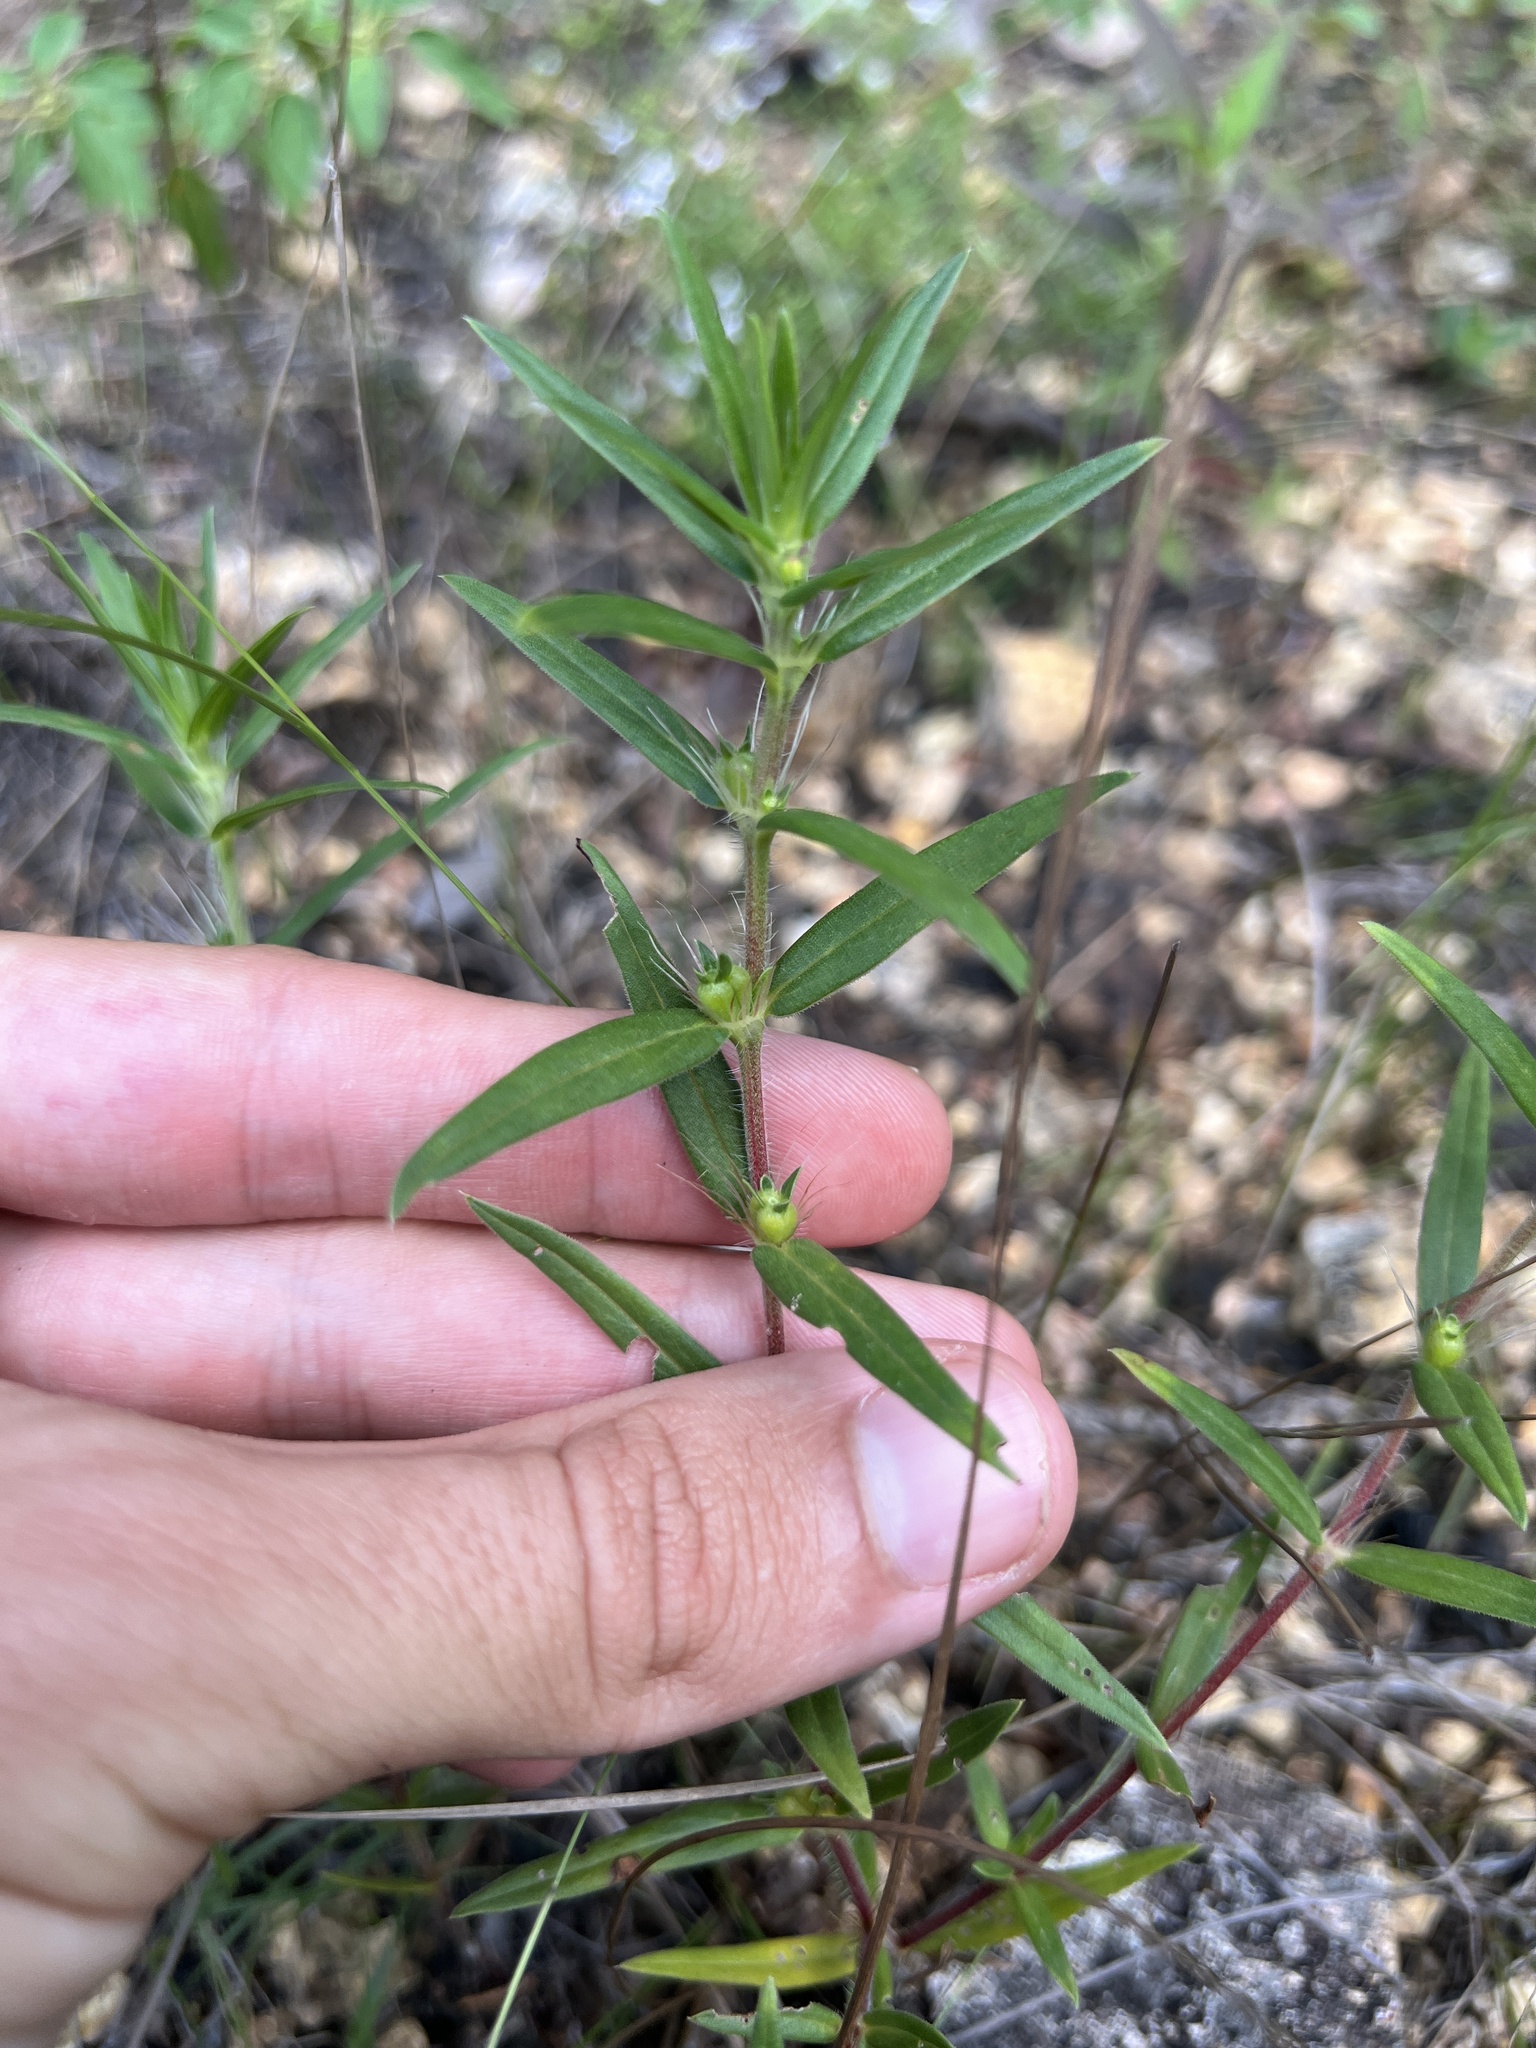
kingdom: Plantae
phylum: Tracheophyta
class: Magnoliopsida
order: Gentianales
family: Rubiaceae
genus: Hexasepalum
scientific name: Hexasepalum teres
